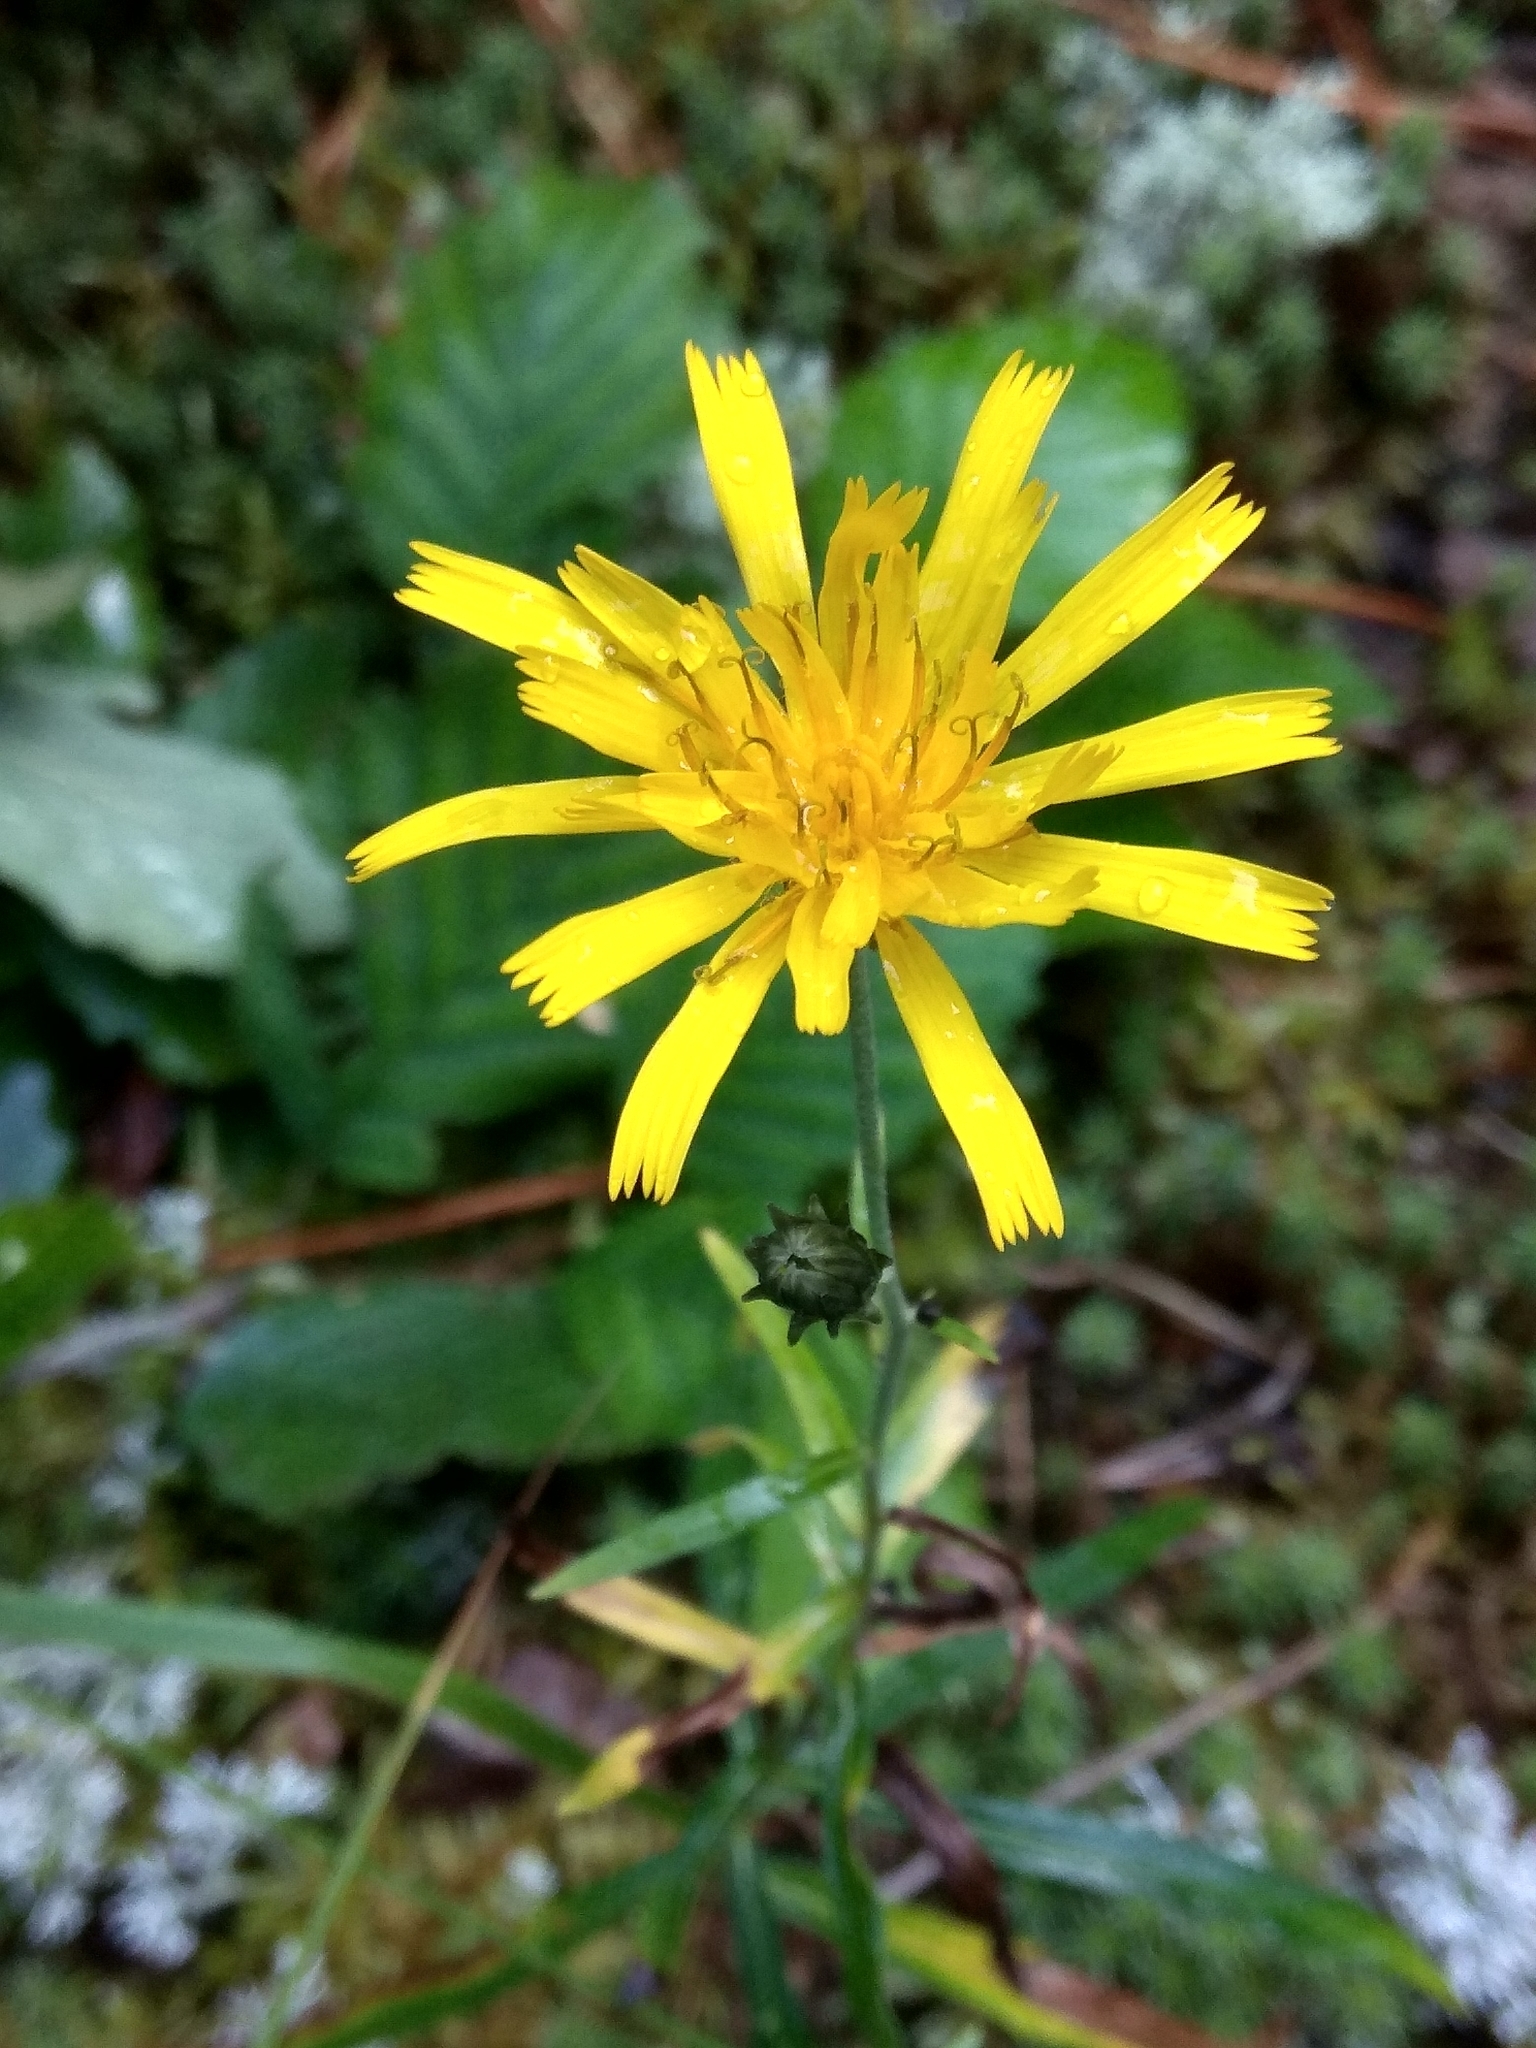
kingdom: Plantae
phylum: Tracheophyta
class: Magnoliopsida
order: Asterales
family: Asteraceae
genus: Hieracium
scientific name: Hieracium umbellatum
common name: Northern hawkweed
